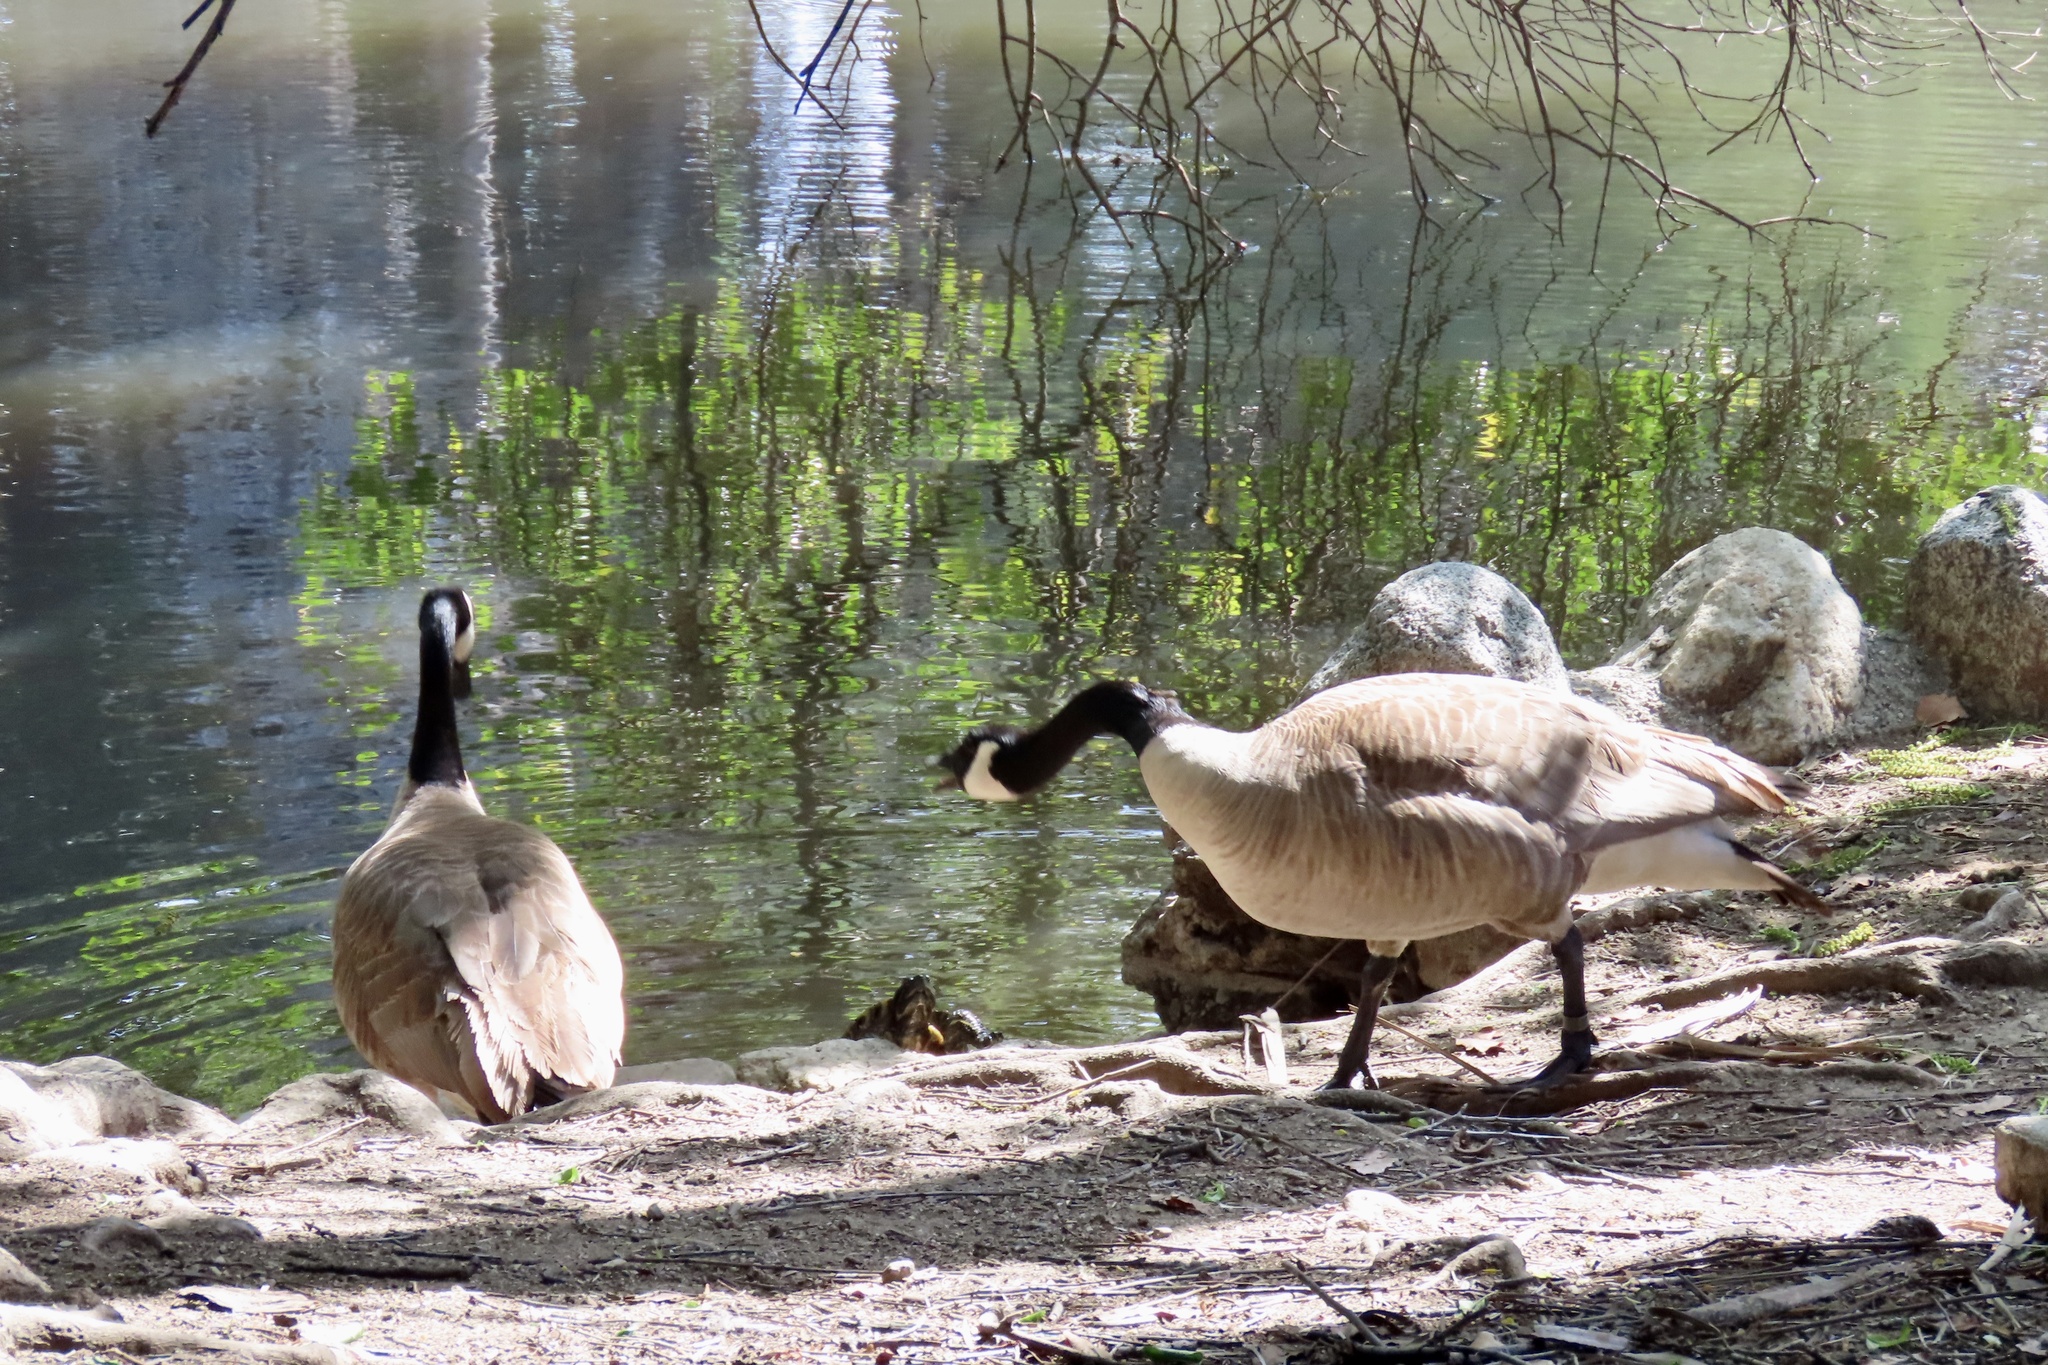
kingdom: Animalia
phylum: Chordata
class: Aves
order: Anseriformes
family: Anatidae
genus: Branta
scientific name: Branta canadensis
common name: Canada goose
